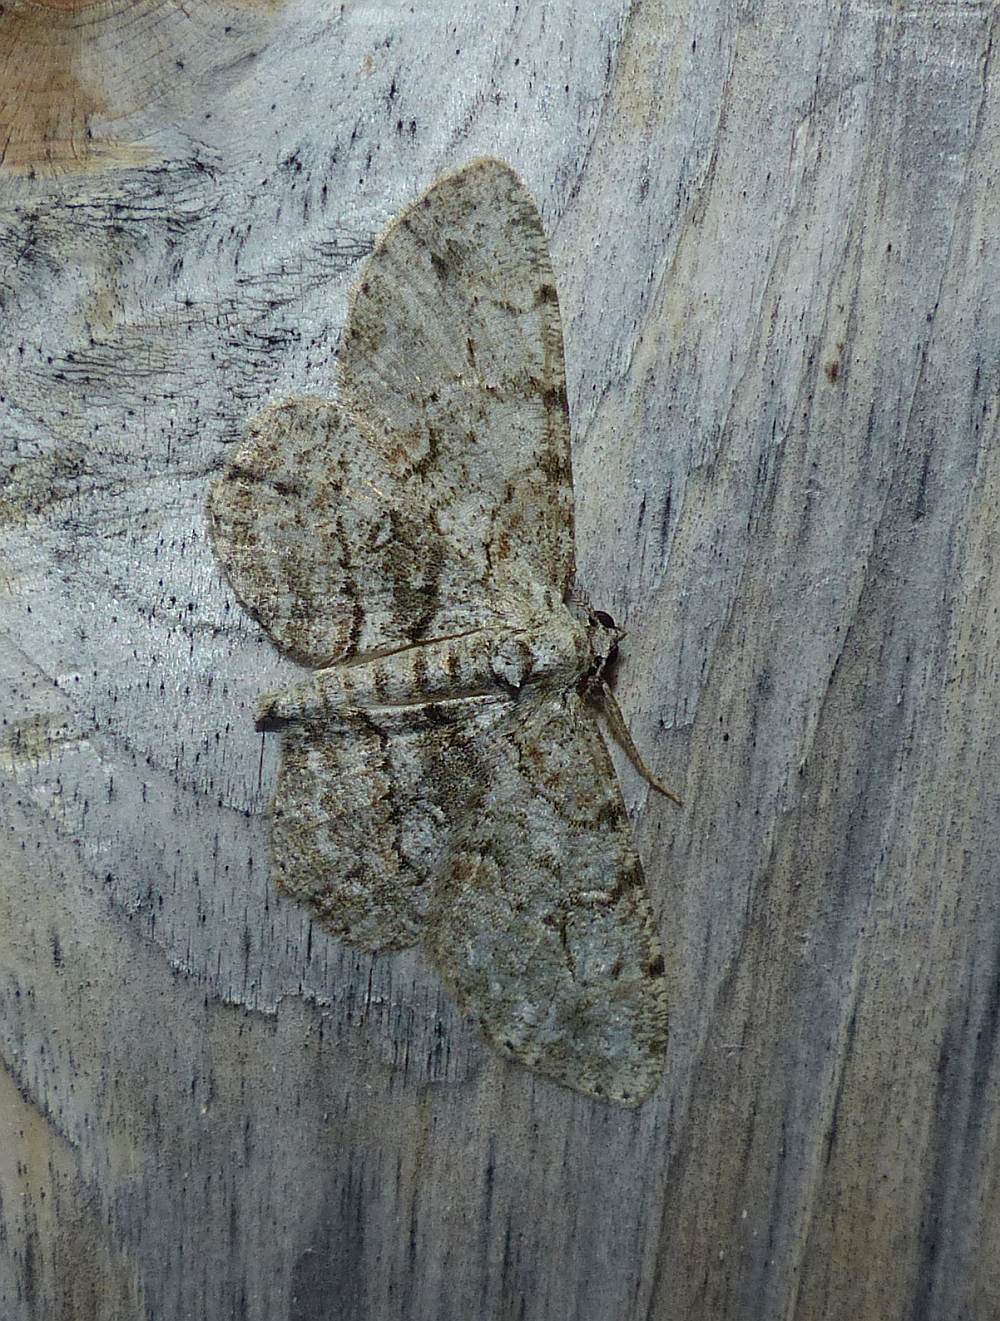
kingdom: Animalia
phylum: Arthropoda
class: Insecta
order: Lepidoptera
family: Geometridae
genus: Iridopsis
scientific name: Iridopsis ephyraria
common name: Pale-winged gray
